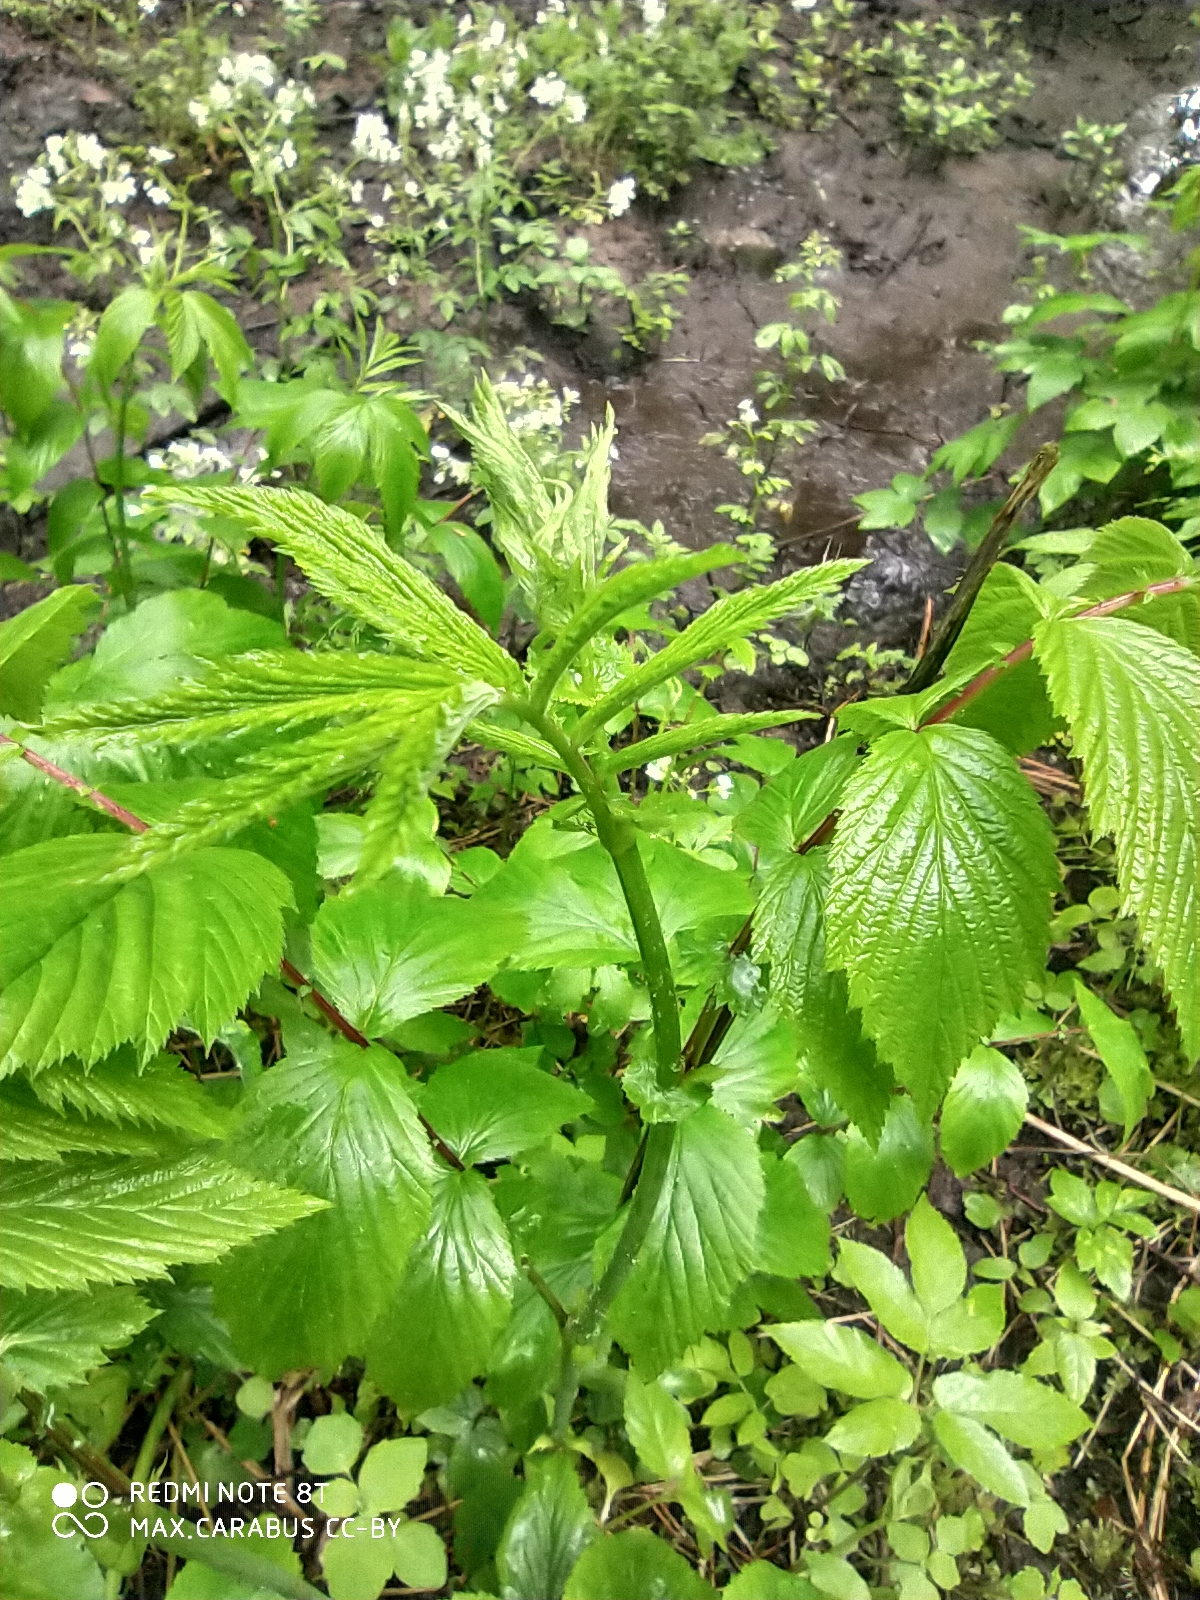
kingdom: Plantae
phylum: Tracheophyta
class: Magnoliopsida
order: Rosales
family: Rosaceae
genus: Filipendula
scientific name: Filipendula ulmaria
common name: Meadowsweet
